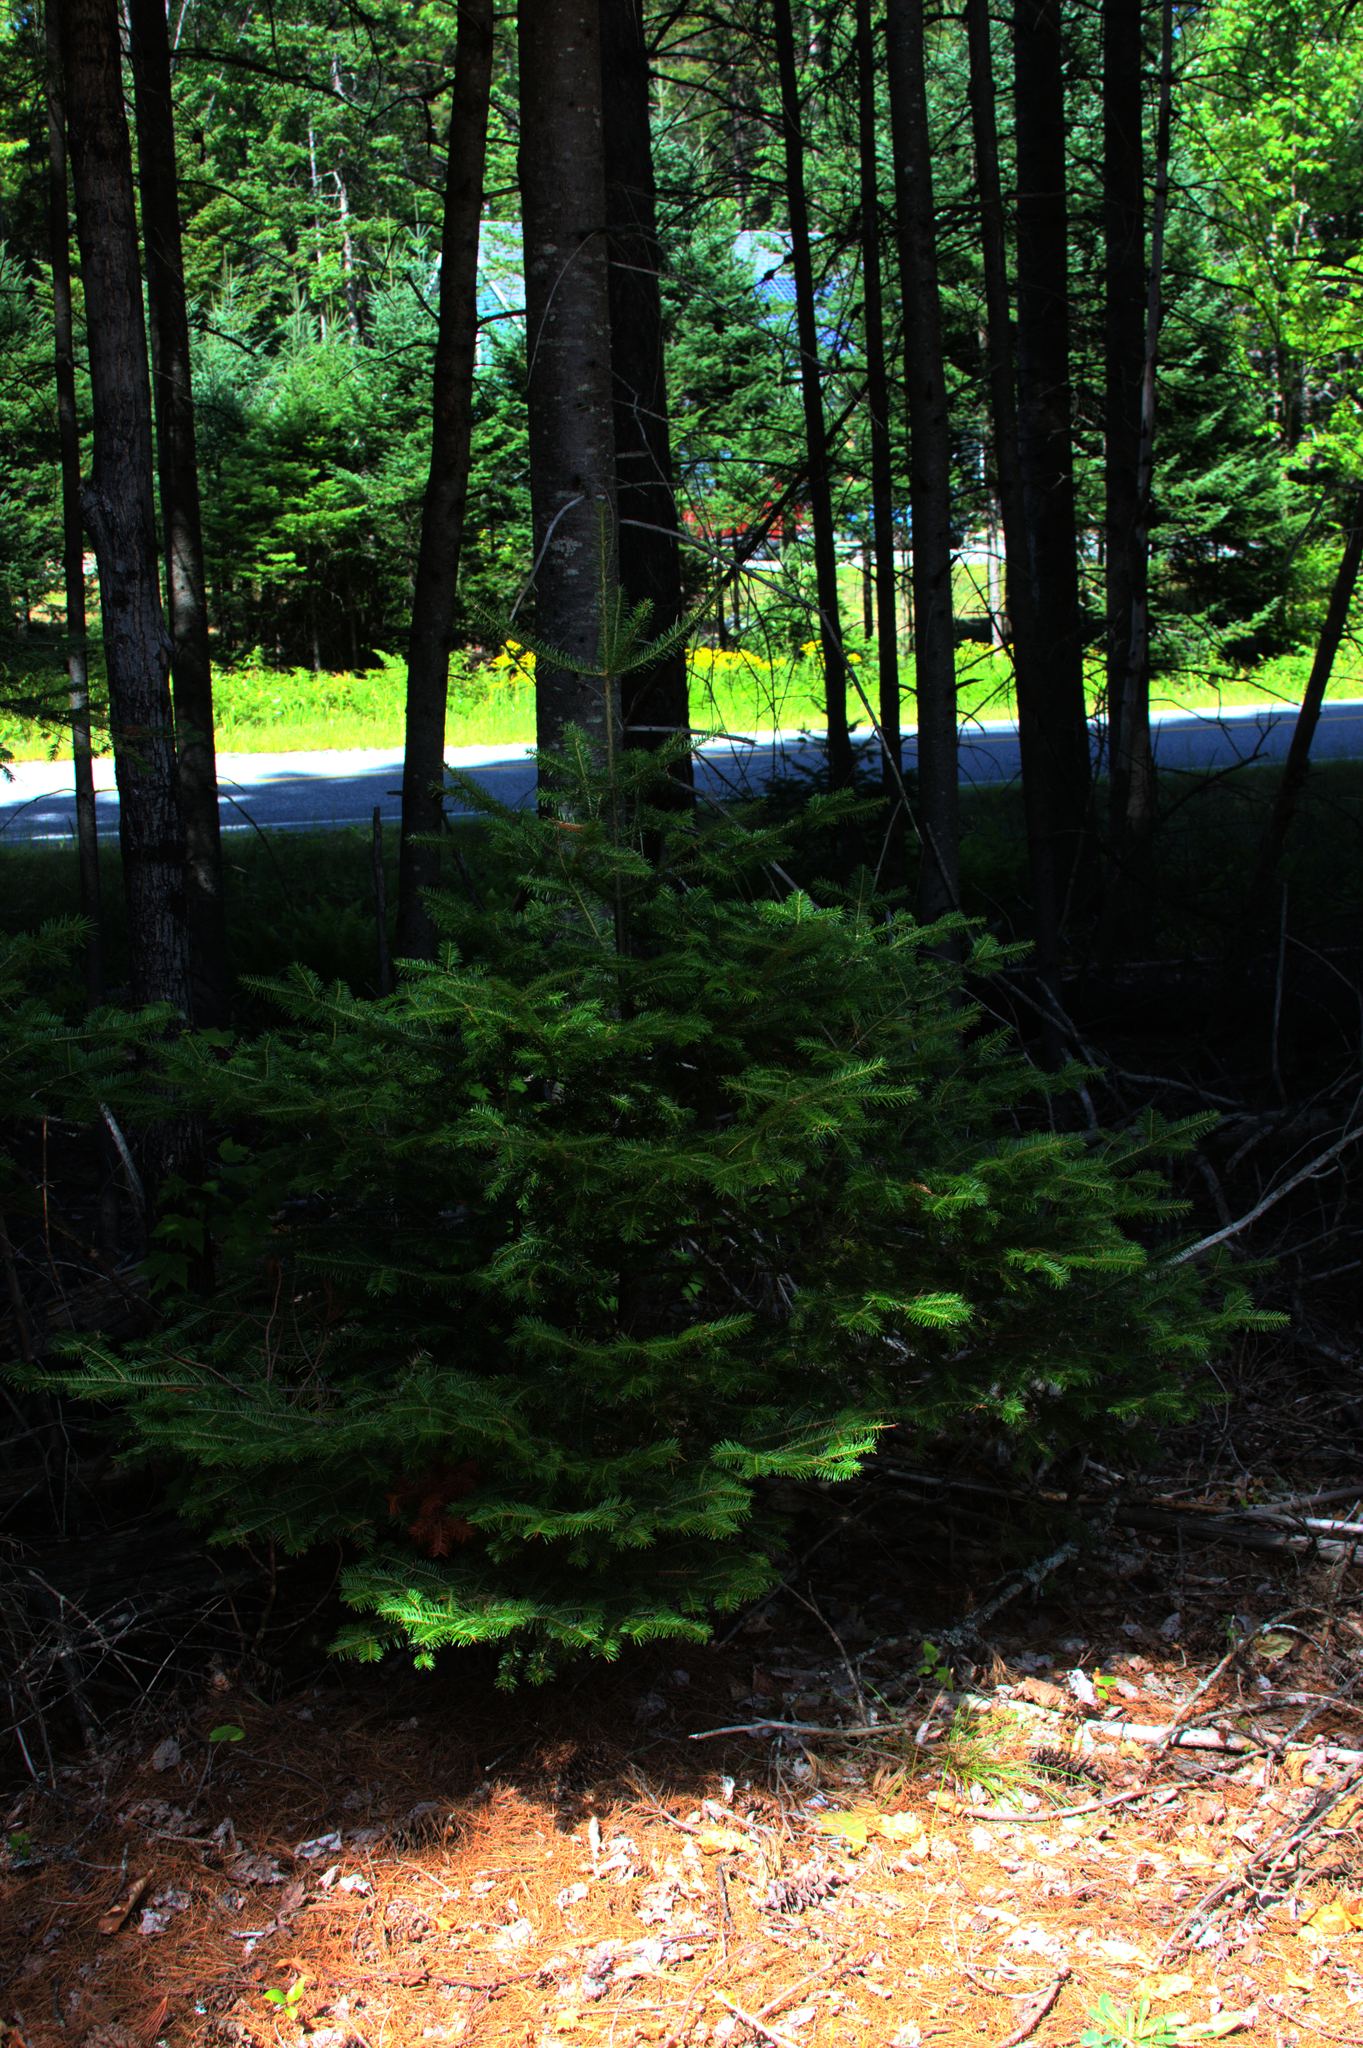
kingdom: Plantae
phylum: Tracheophyta
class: Pinopsida
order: Pinales
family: Pinaceae
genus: Abies
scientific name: Abies balsamea
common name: Balsam fir
